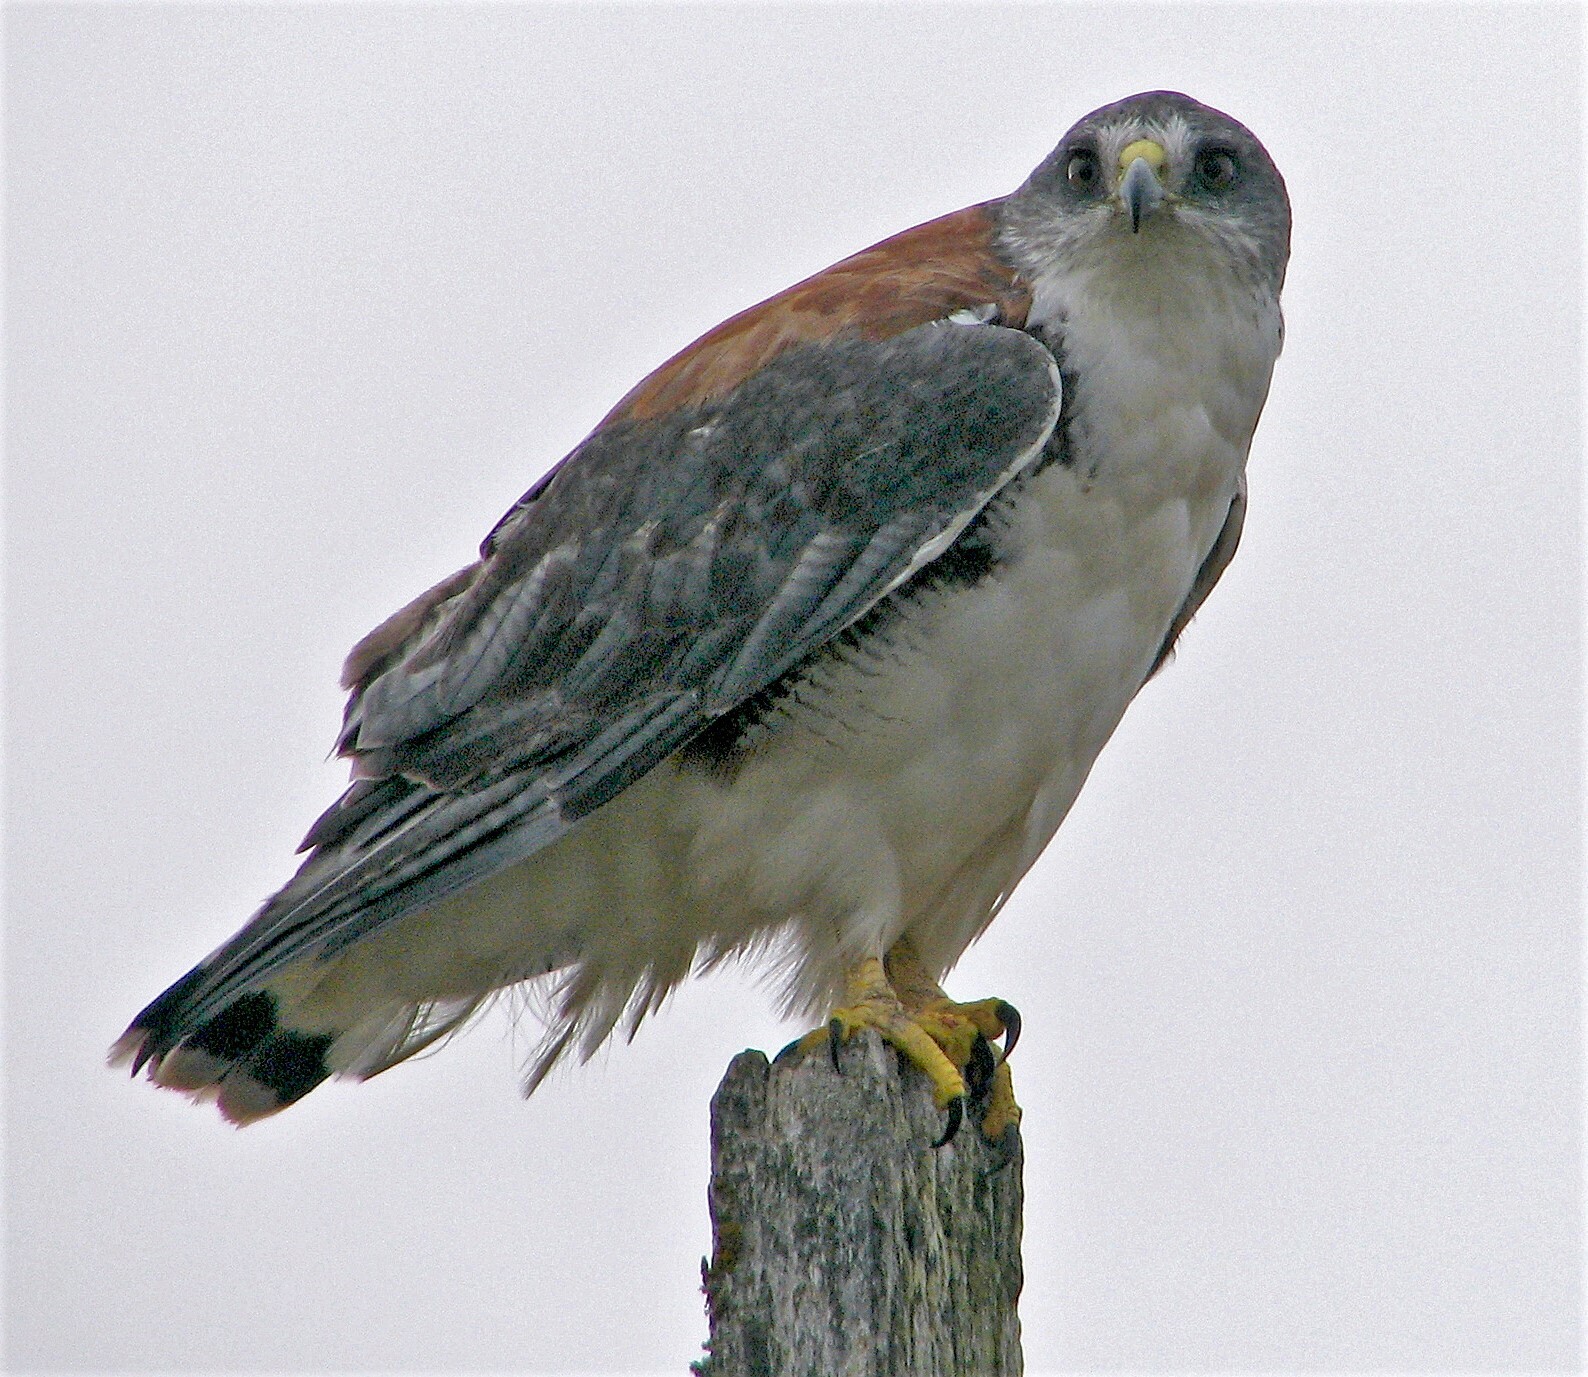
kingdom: Animalia
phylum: Chordata
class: Aves
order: Accipitriformes
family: Accipitridae
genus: Buteo
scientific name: Buteo polyosoma
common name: Variable hawk
